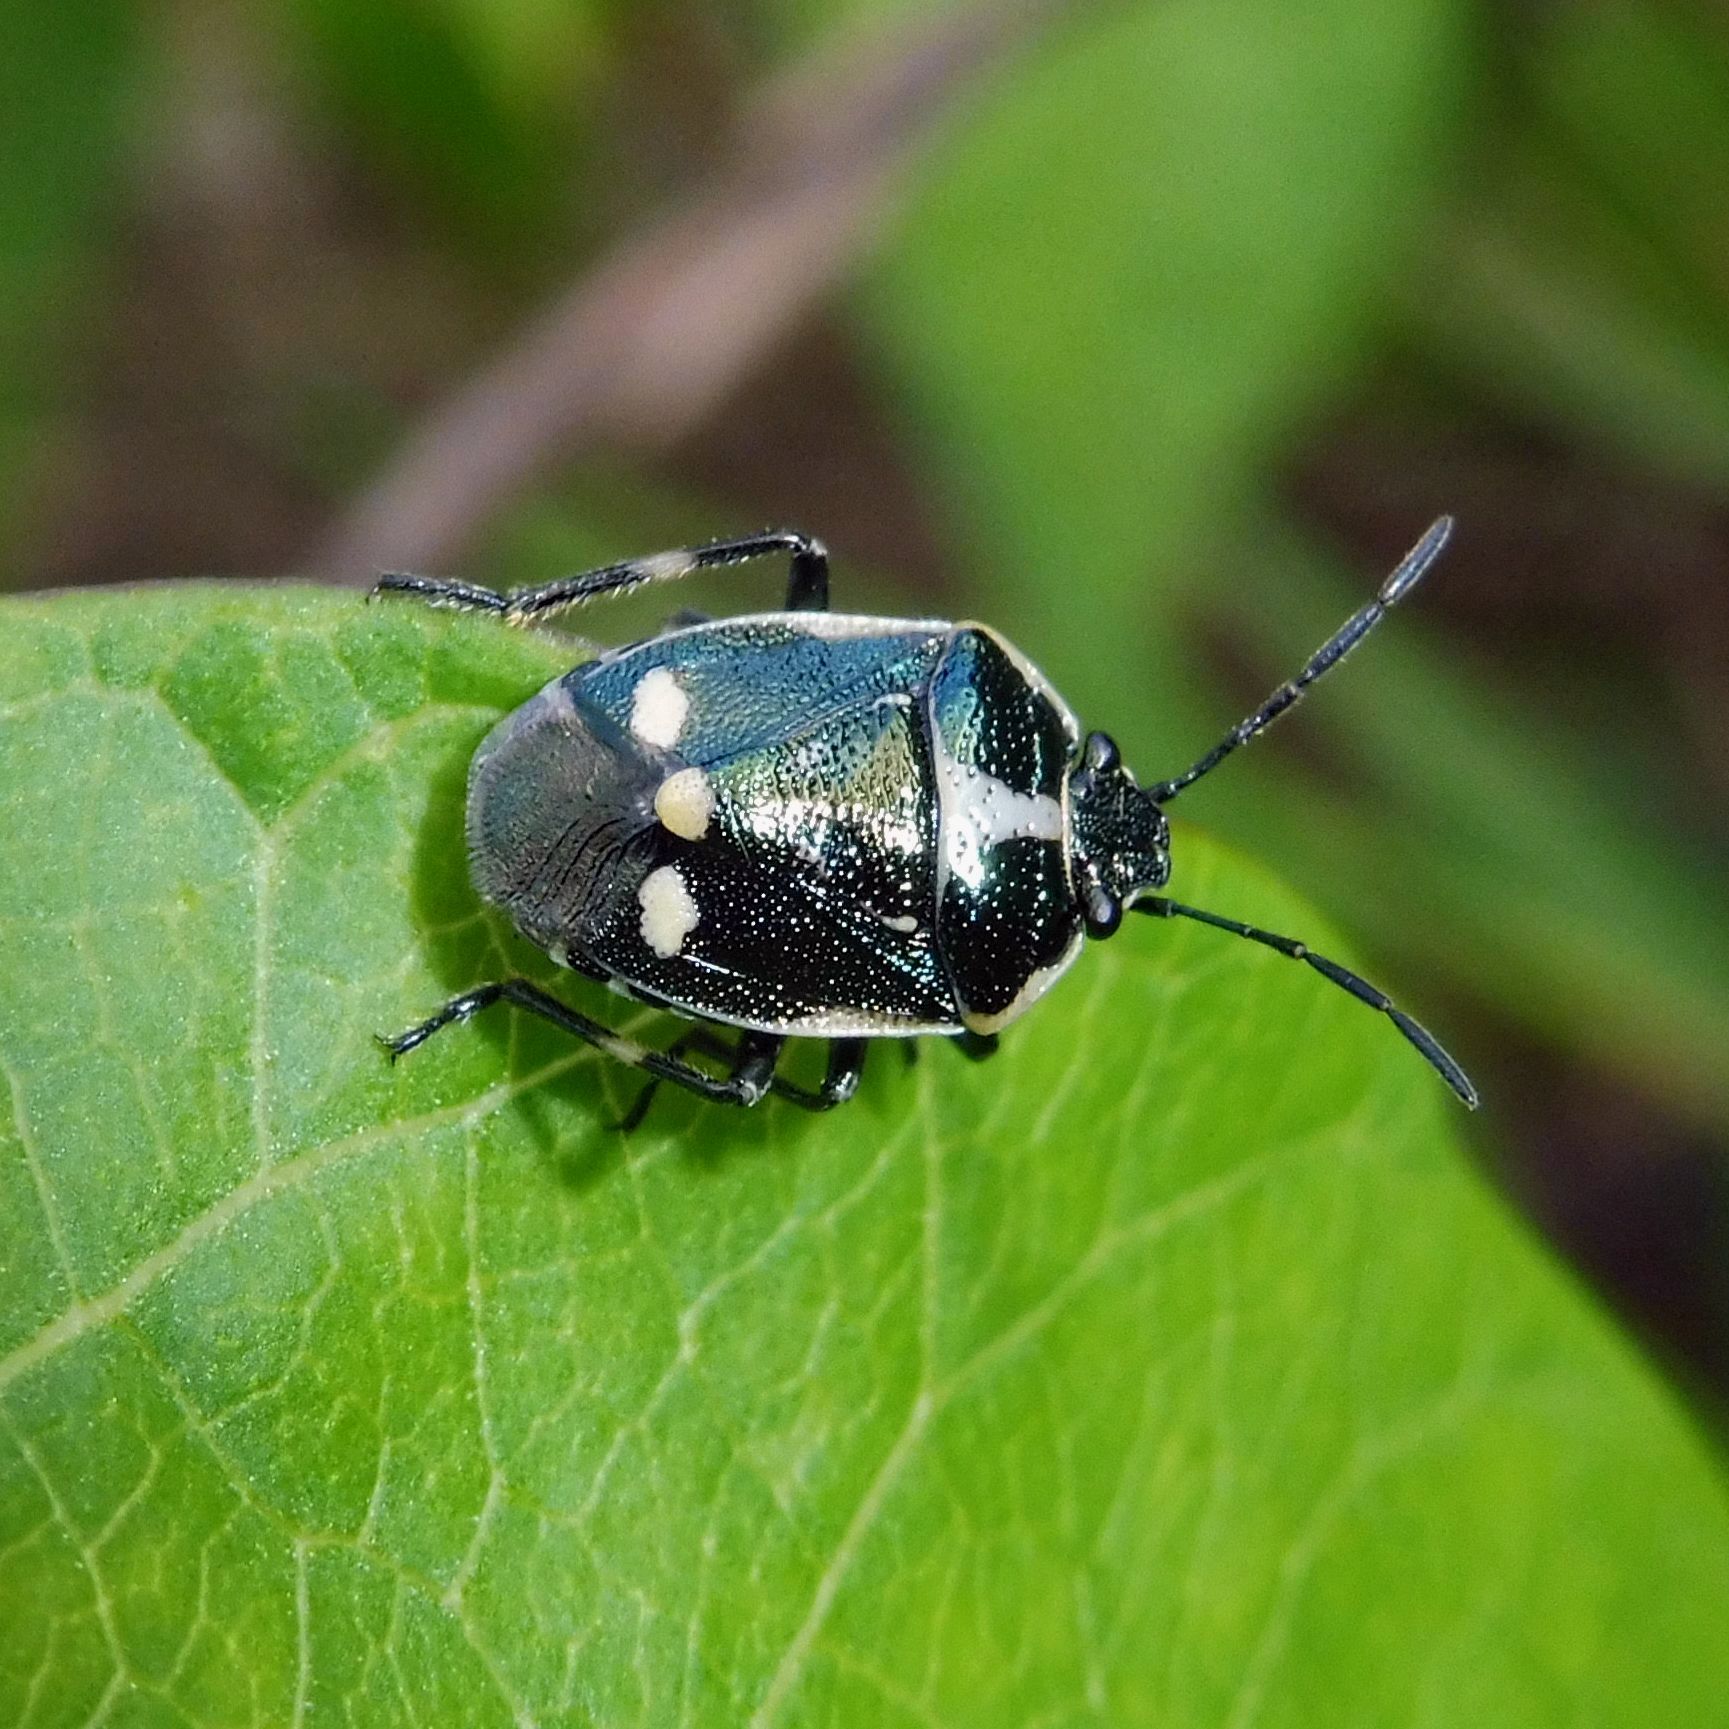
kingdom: Animalia
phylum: Arthropoda
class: Insecta
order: Hemiptera
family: Pentatomidae
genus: Eurydema
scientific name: Eurydema oleracea
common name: Cabbage bug
